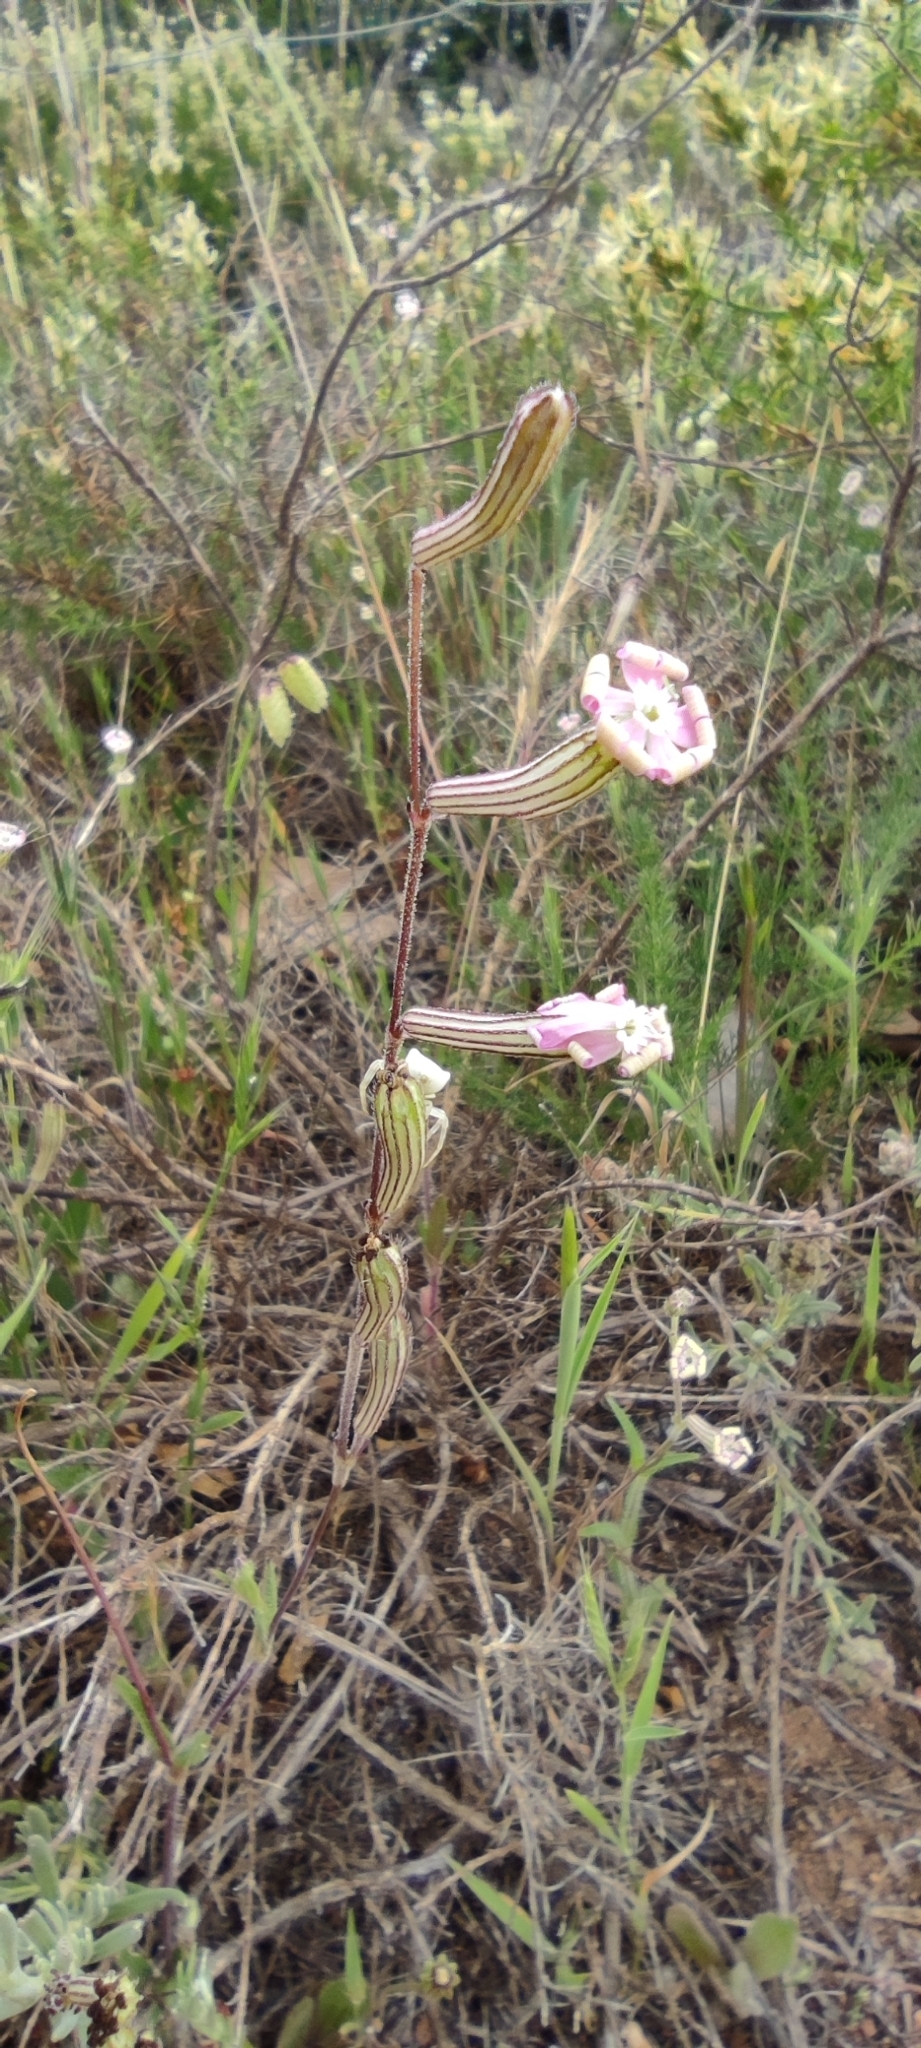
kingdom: Plantae
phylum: Tracheophyta
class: Magnoliopsida
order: Caryophyllales
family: Caryophyllaceae
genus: Silene
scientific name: Silene mariana
